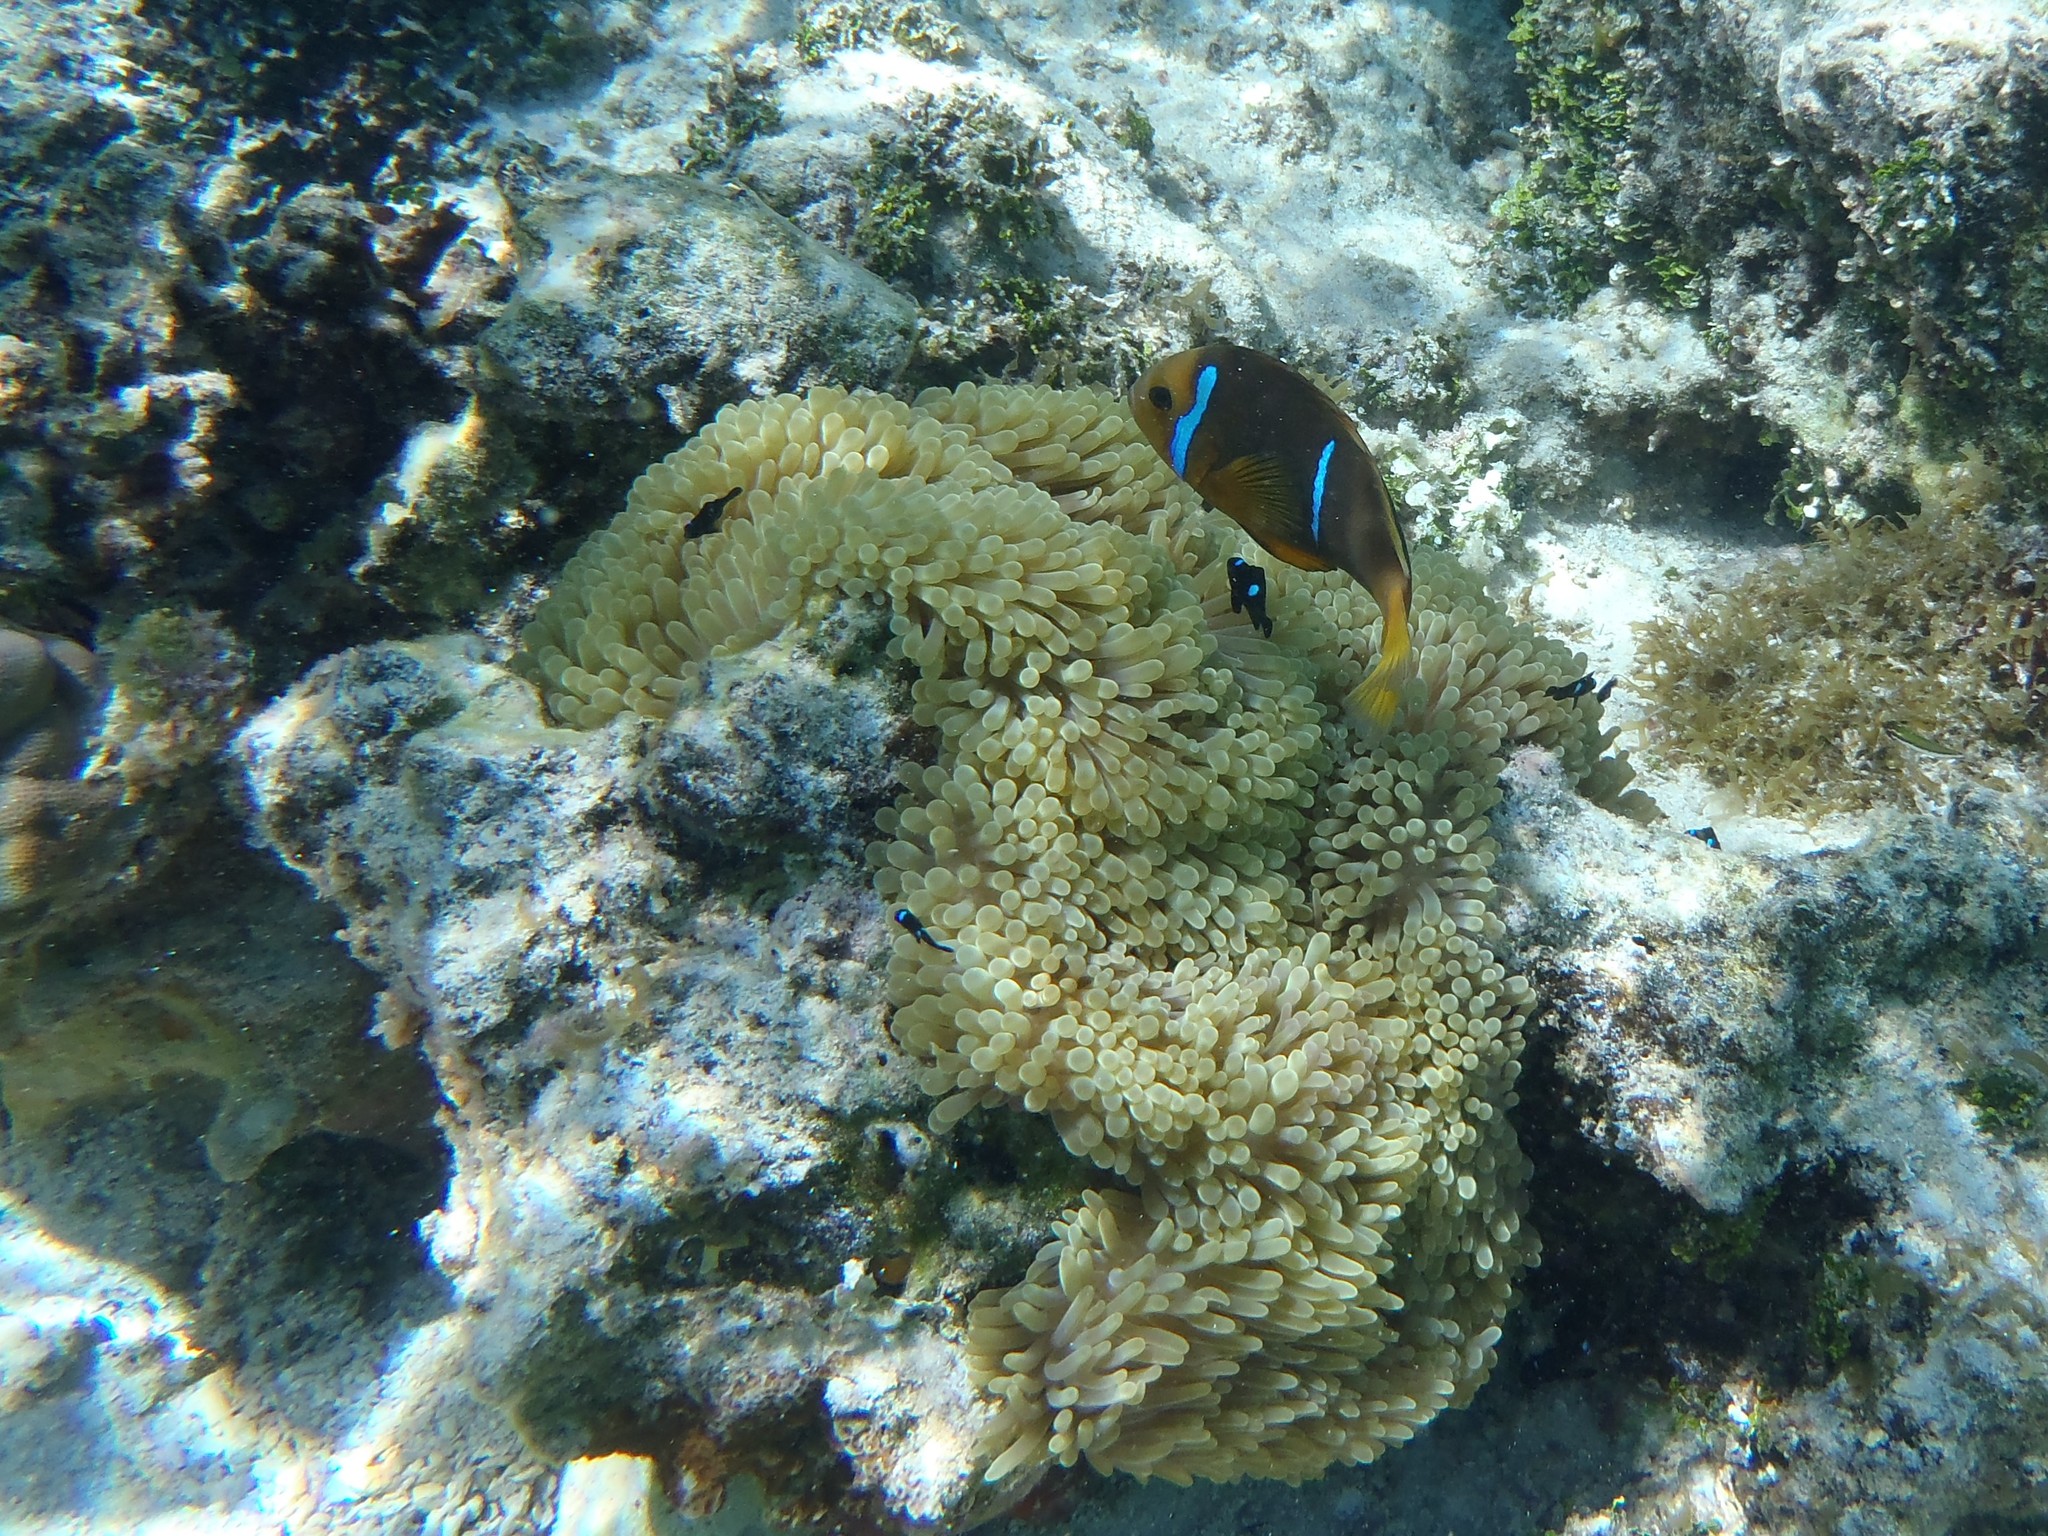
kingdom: Animalia
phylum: Chordata
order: Perciformes
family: Pomacentridae
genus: Amphiprion
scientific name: Amphiprion chrysopterus
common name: Orange-fin anemonefish
